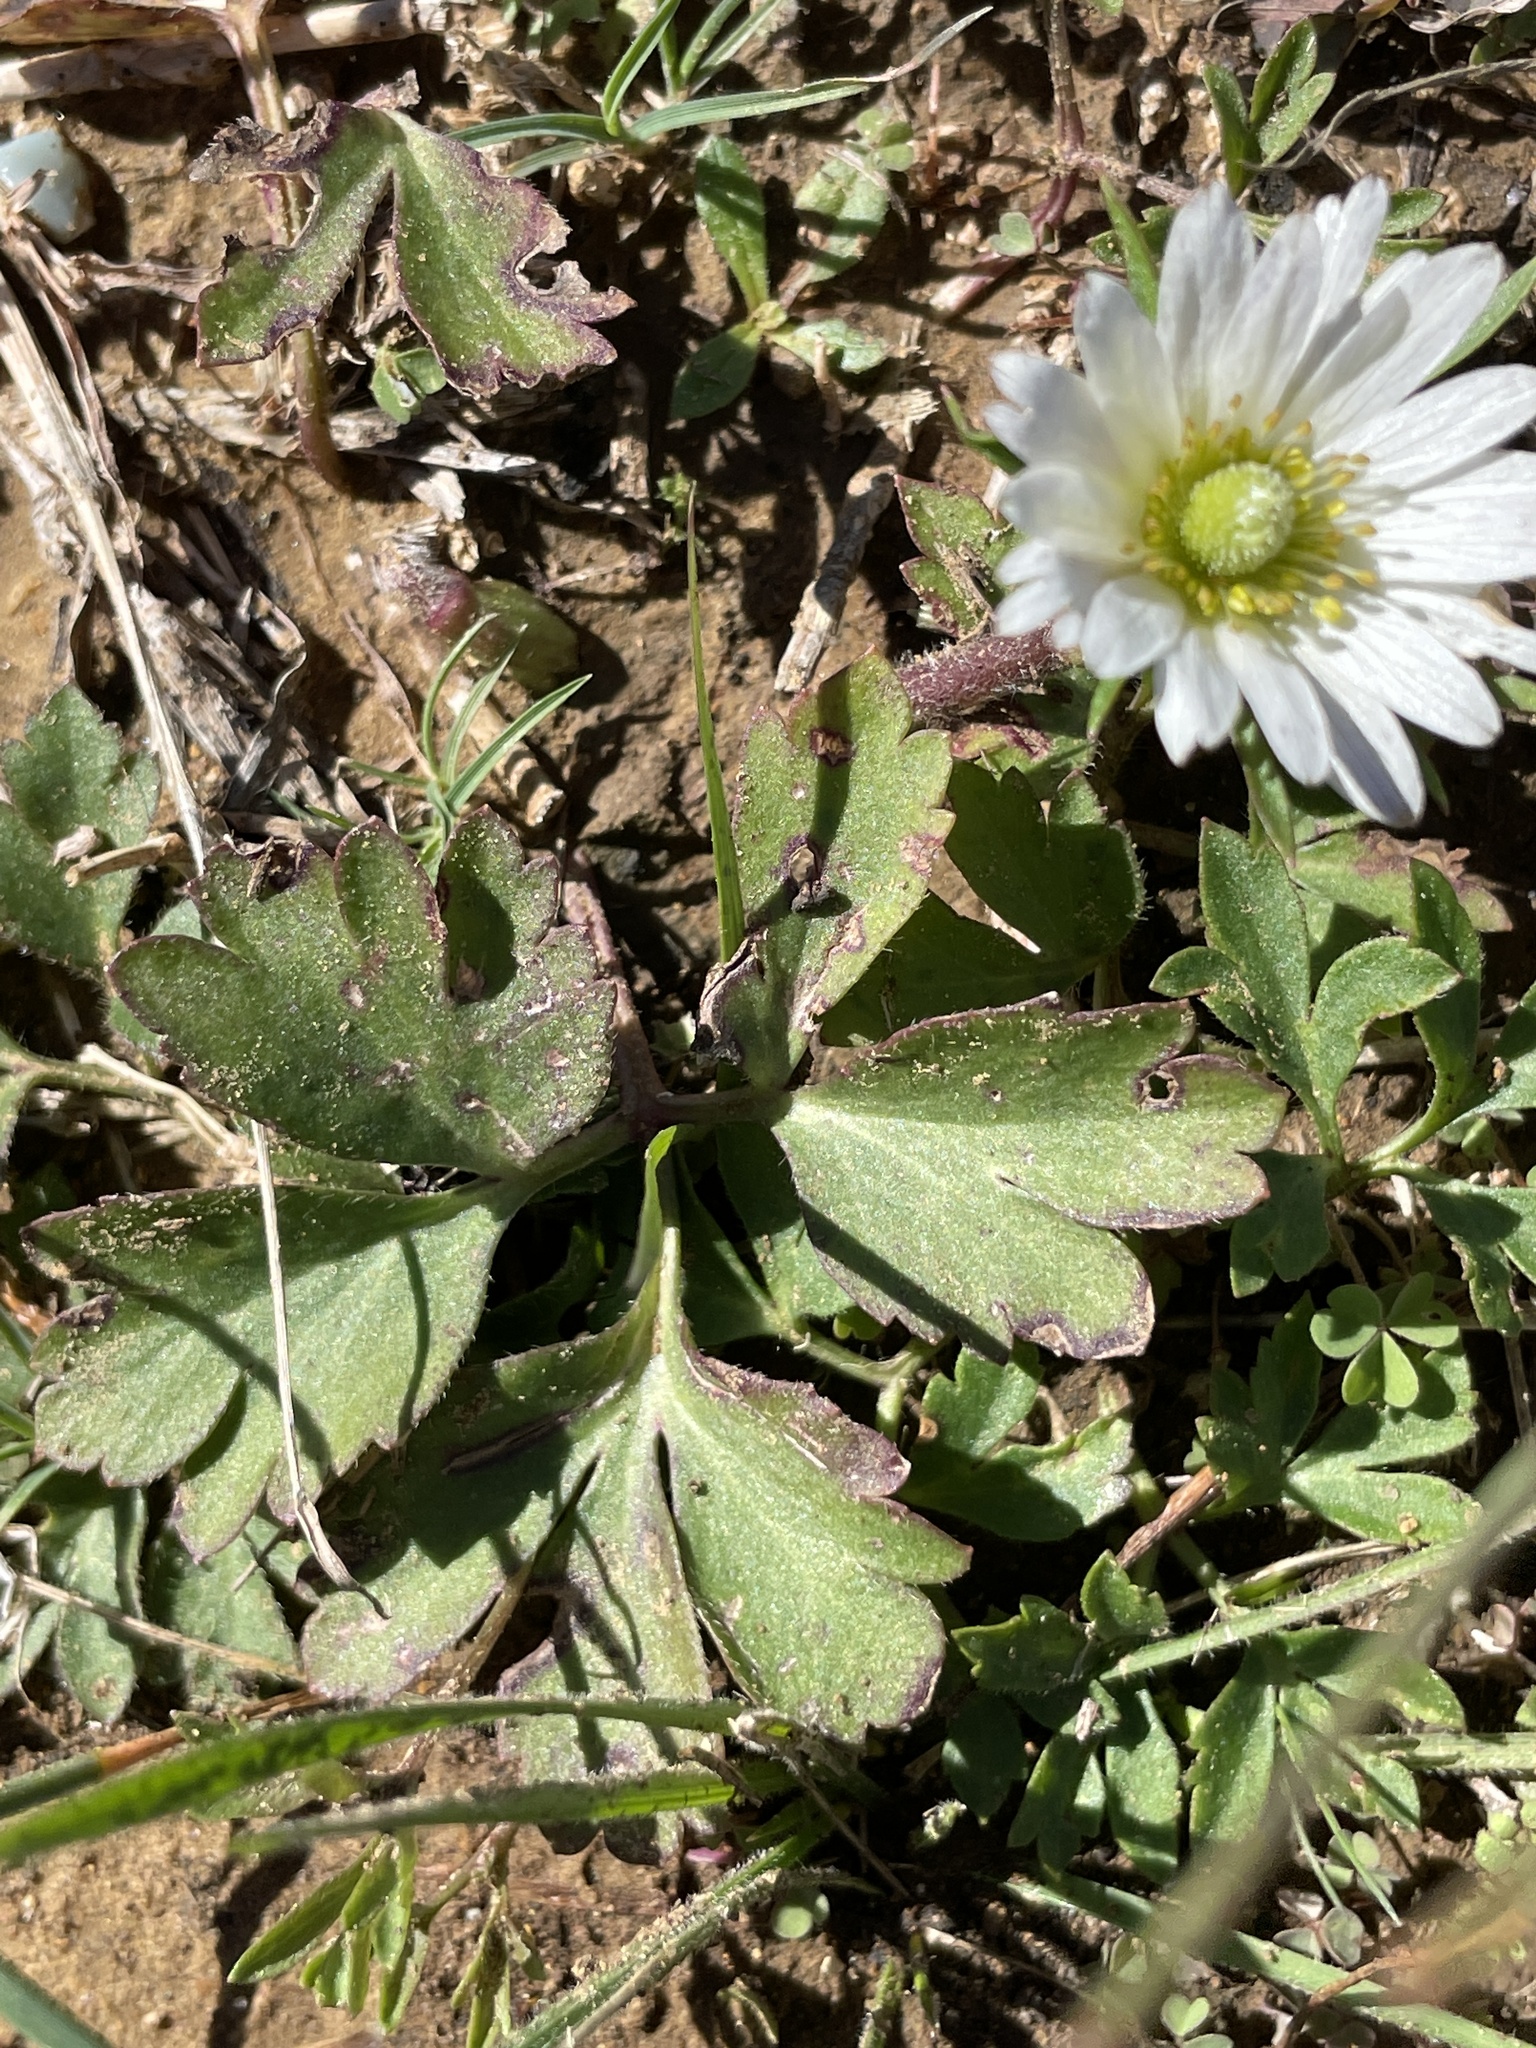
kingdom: Plantae
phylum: Tracheophyta
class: Magnoliopsida
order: Ranunculales
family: Ranunculaceae
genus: Anemone
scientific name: Anemone berlandieri
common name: Ten-petal anemone
